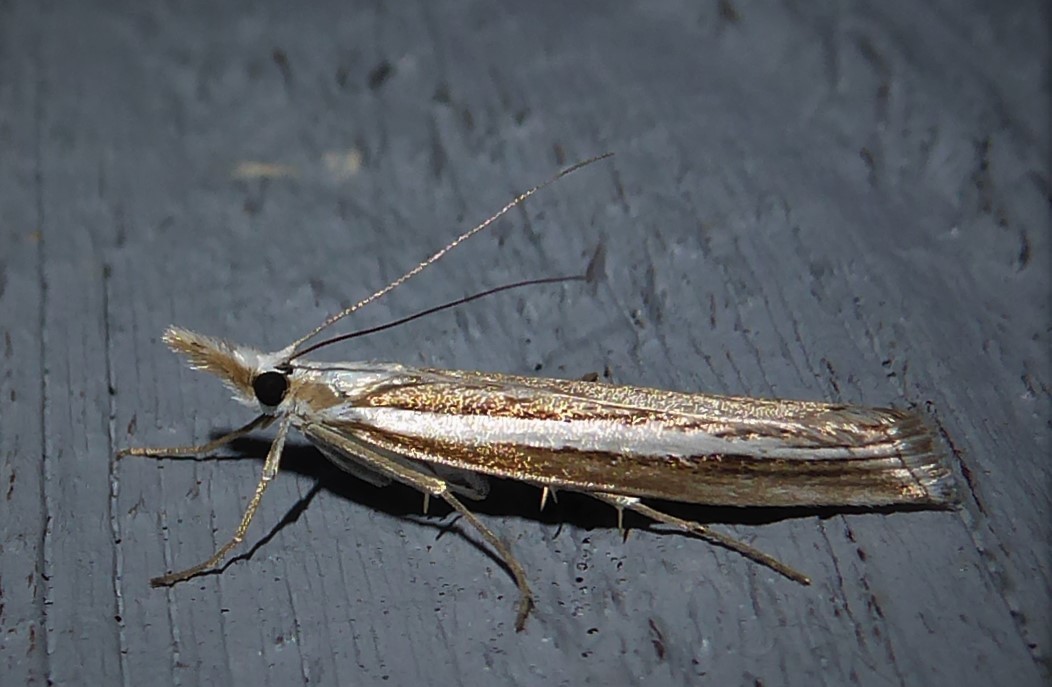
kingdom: Animalia
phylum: Arthropoda
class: Insecta
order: Lepidoptera
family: Crambidae
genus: Orocrambus
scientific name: Orocrambus vittellus
